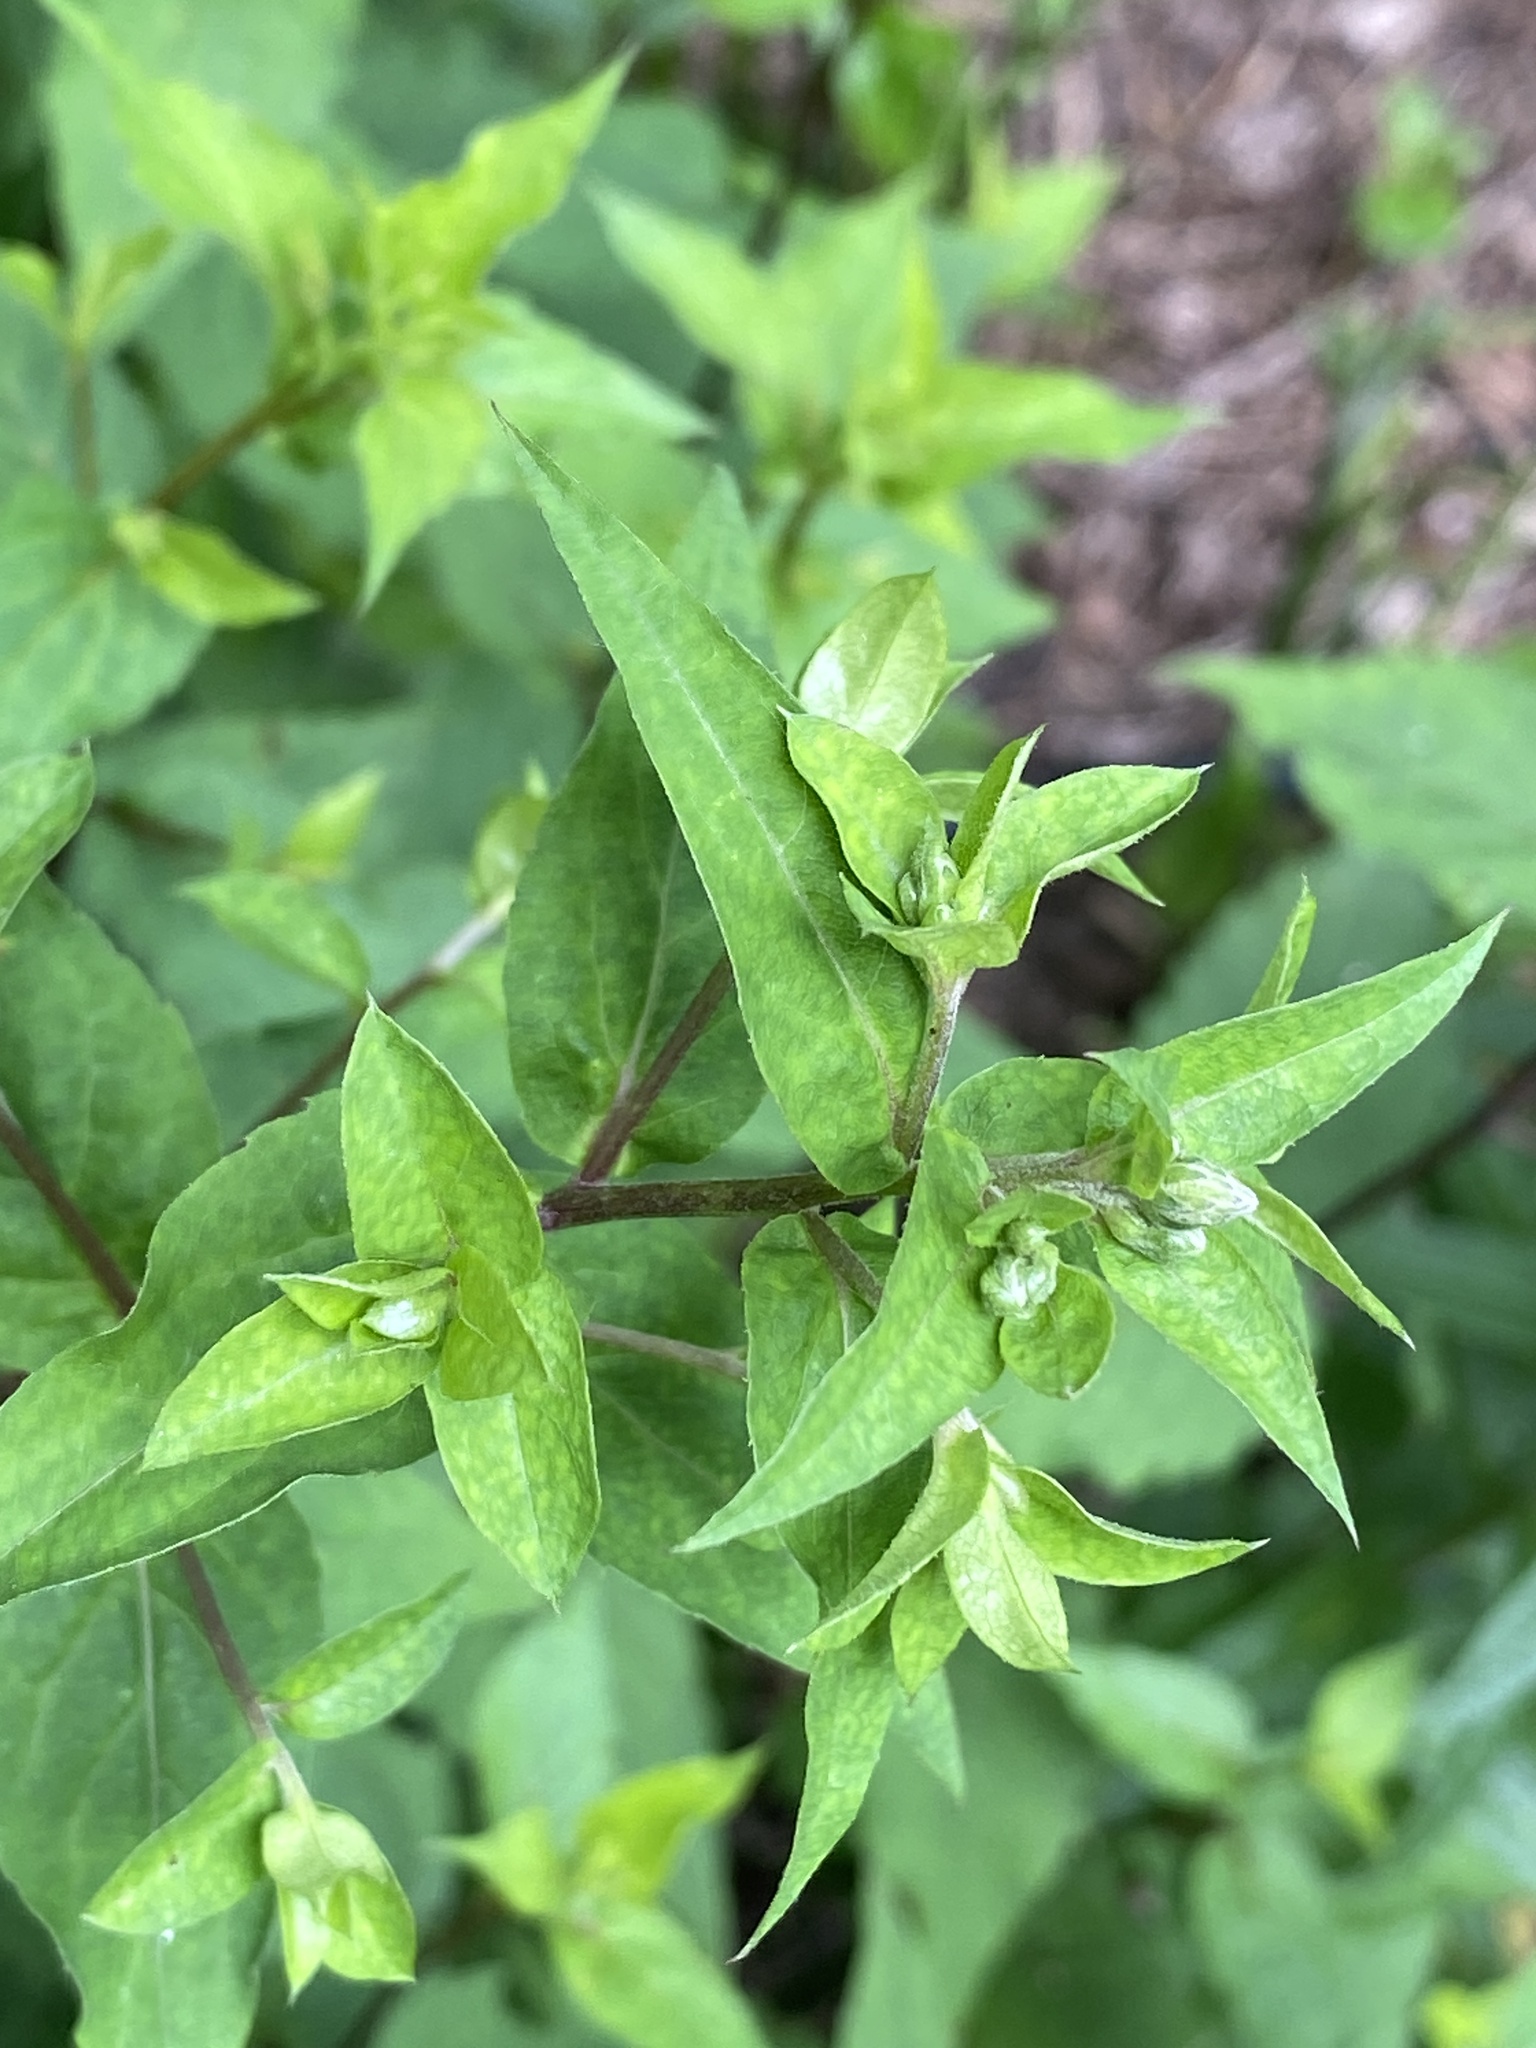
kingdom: Plantae
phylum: Tracheophyta
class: Magnoliopsida
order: Asterales
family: Asteraceae
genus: Eurybia
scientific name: Eurybia divaricata
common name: White wood aster
